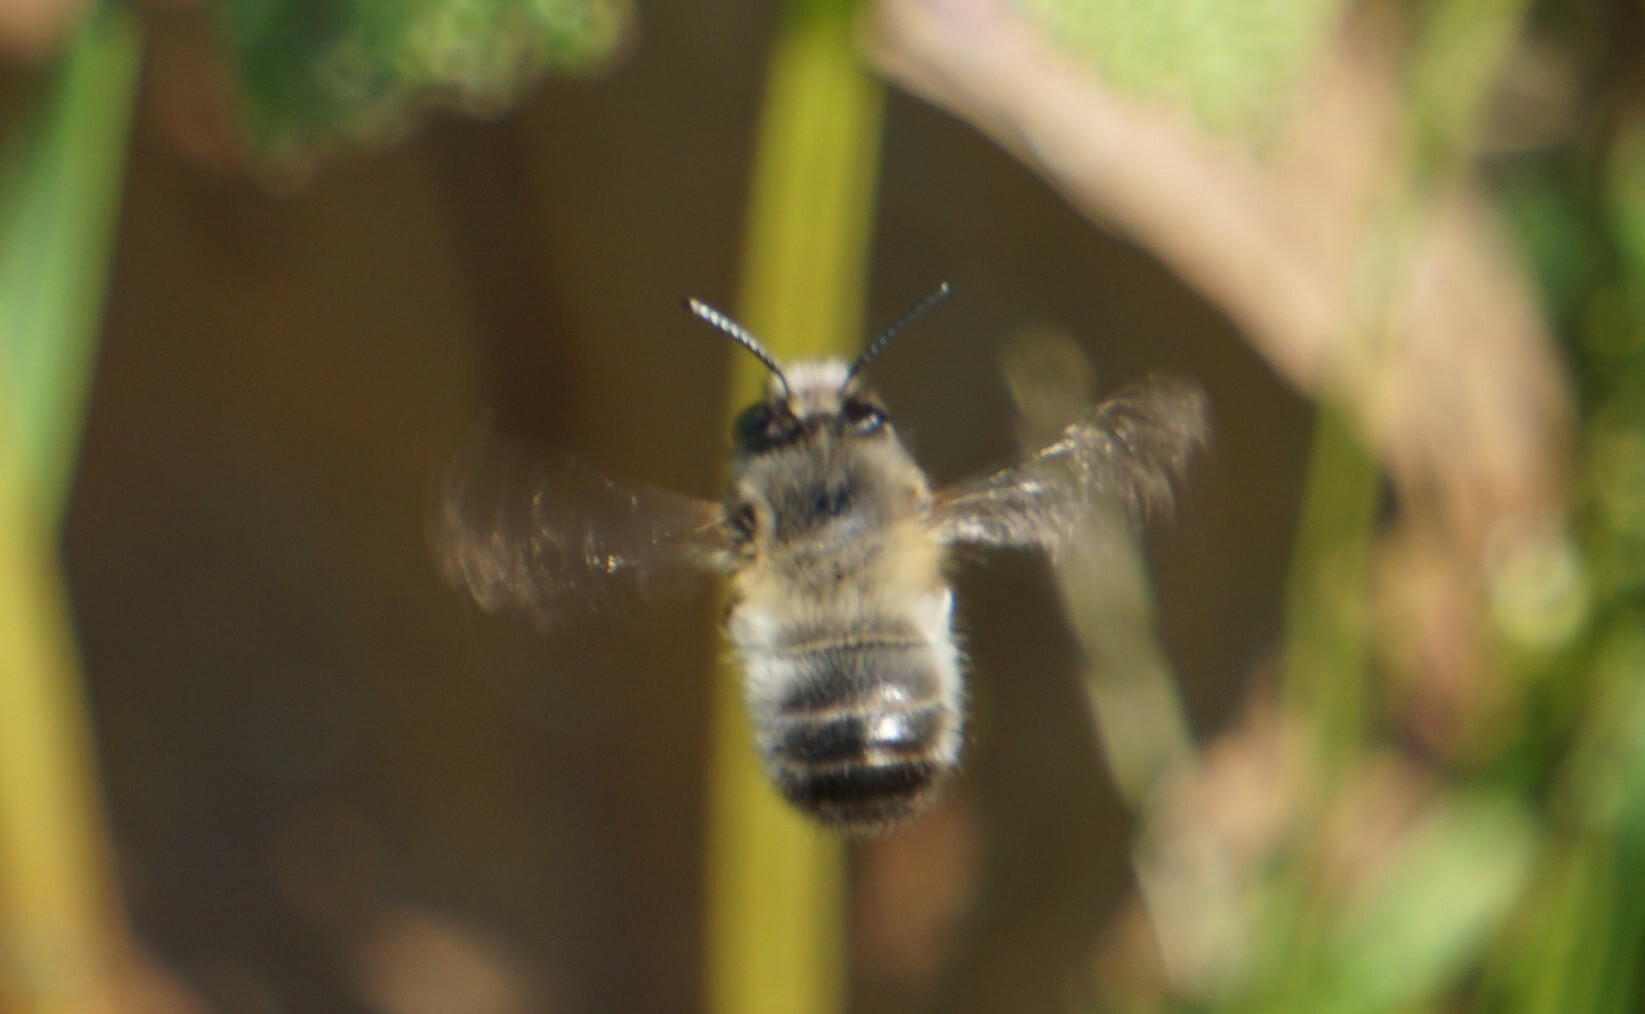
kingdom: Animalia
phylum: Arthropoda
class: Insecta
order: Hymenoptera
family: Apidae
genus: Anthophora
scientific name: Anthophora plumipes
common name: Hairy-footed flower bee
